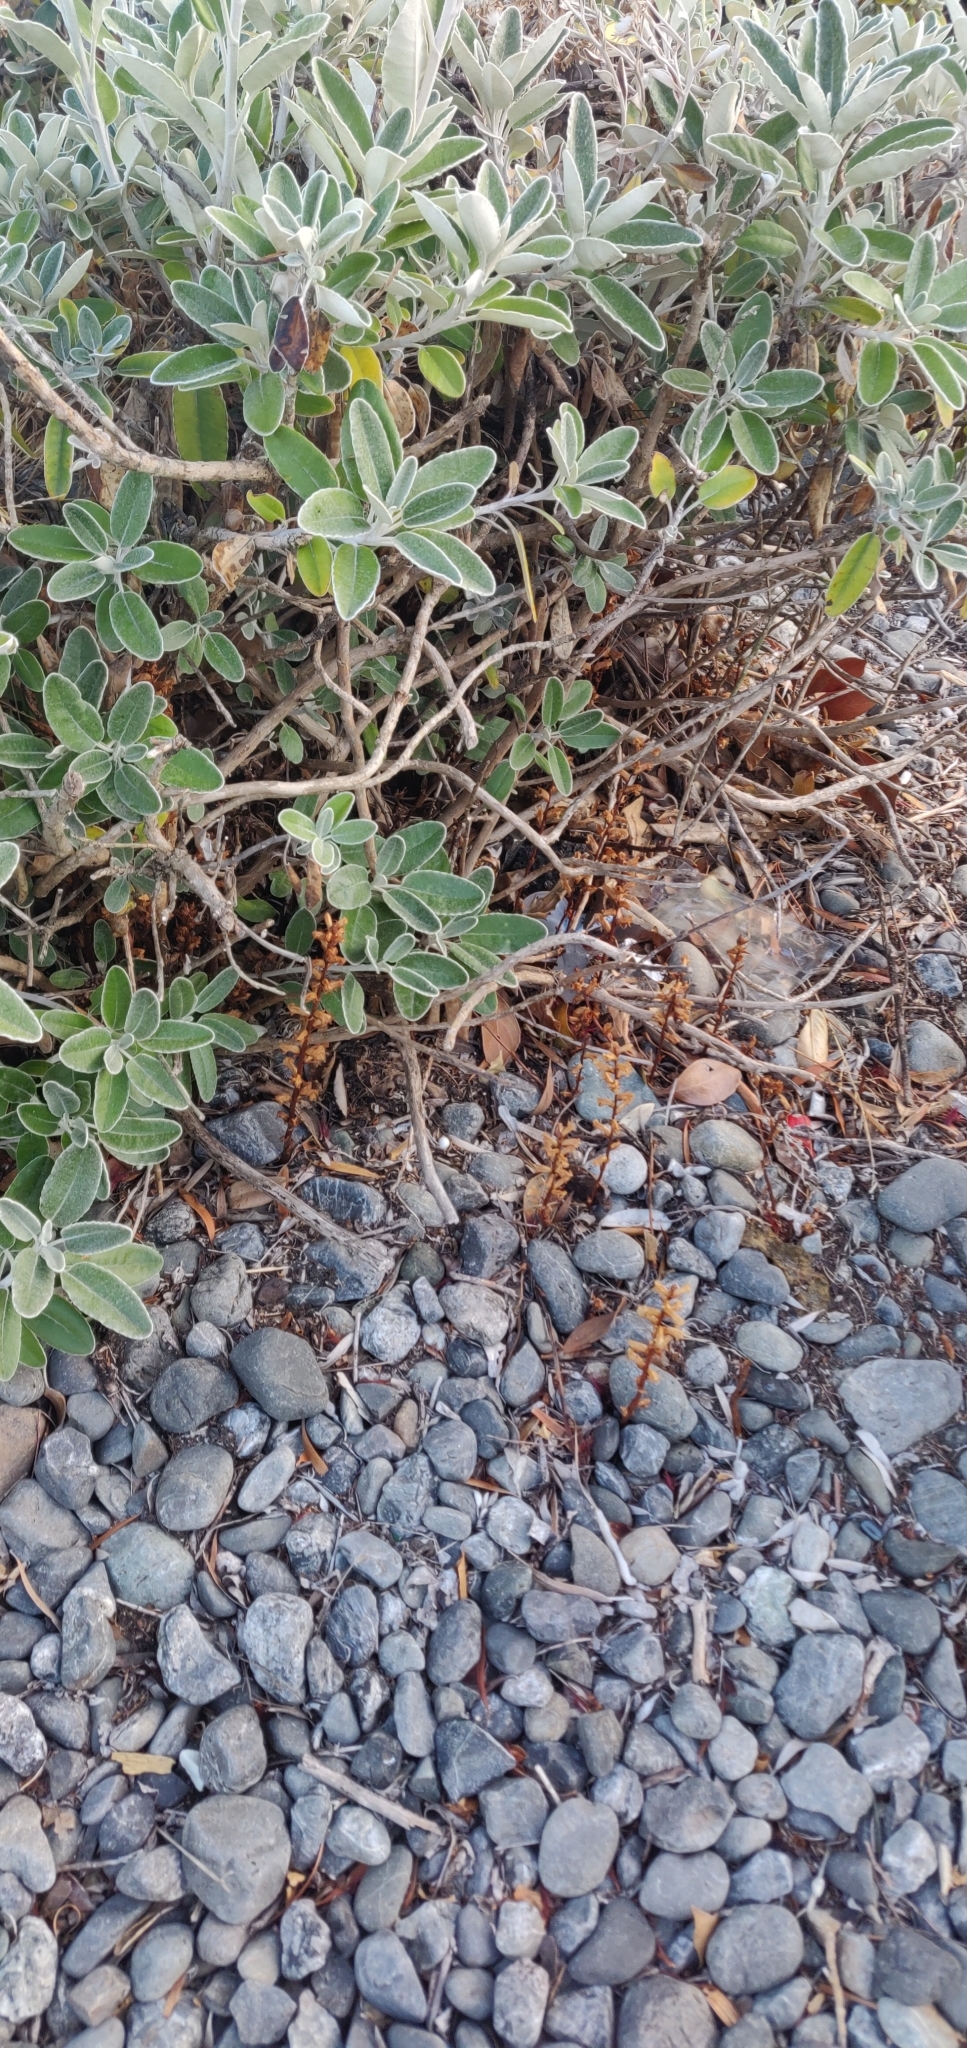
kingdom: Plantae
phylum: Tracheophyta
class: Magnoliopsida
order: Lamiales
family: Orobanchaceae
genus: Orobanche
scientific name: Orobanche minor
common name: Common broomrape
